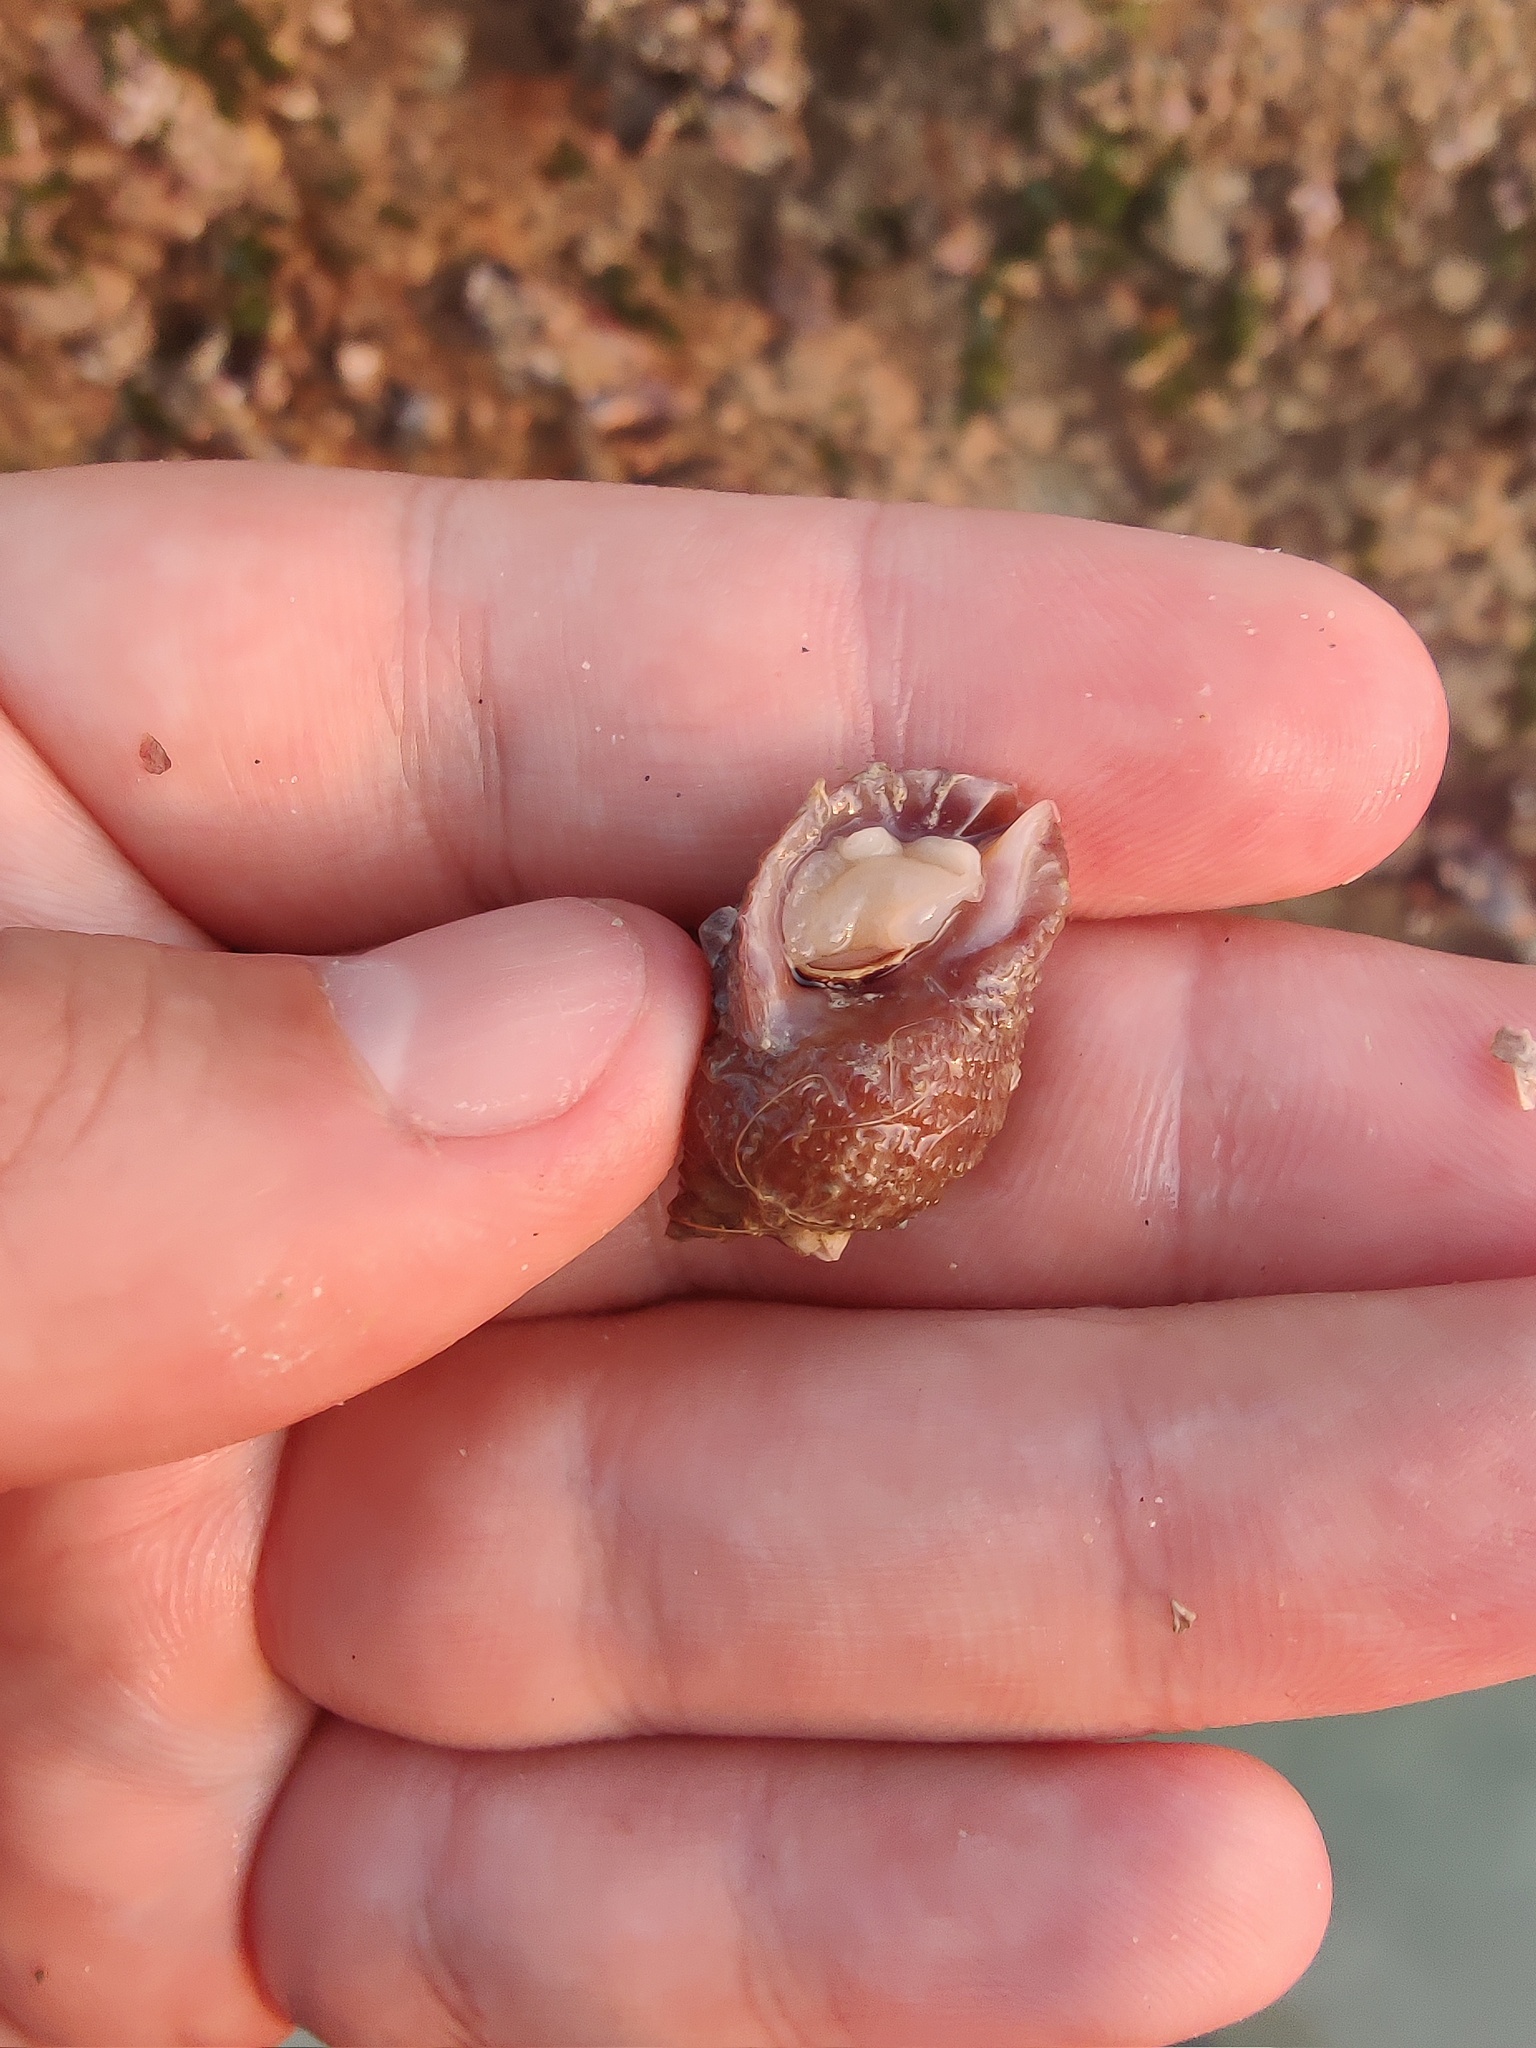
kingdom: Animalia
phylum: Mollusca
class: Gastropoda
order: Neogastropoda
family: Muricidae
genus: Nucella
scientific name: Nucella lapillus
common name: Dog whelk
